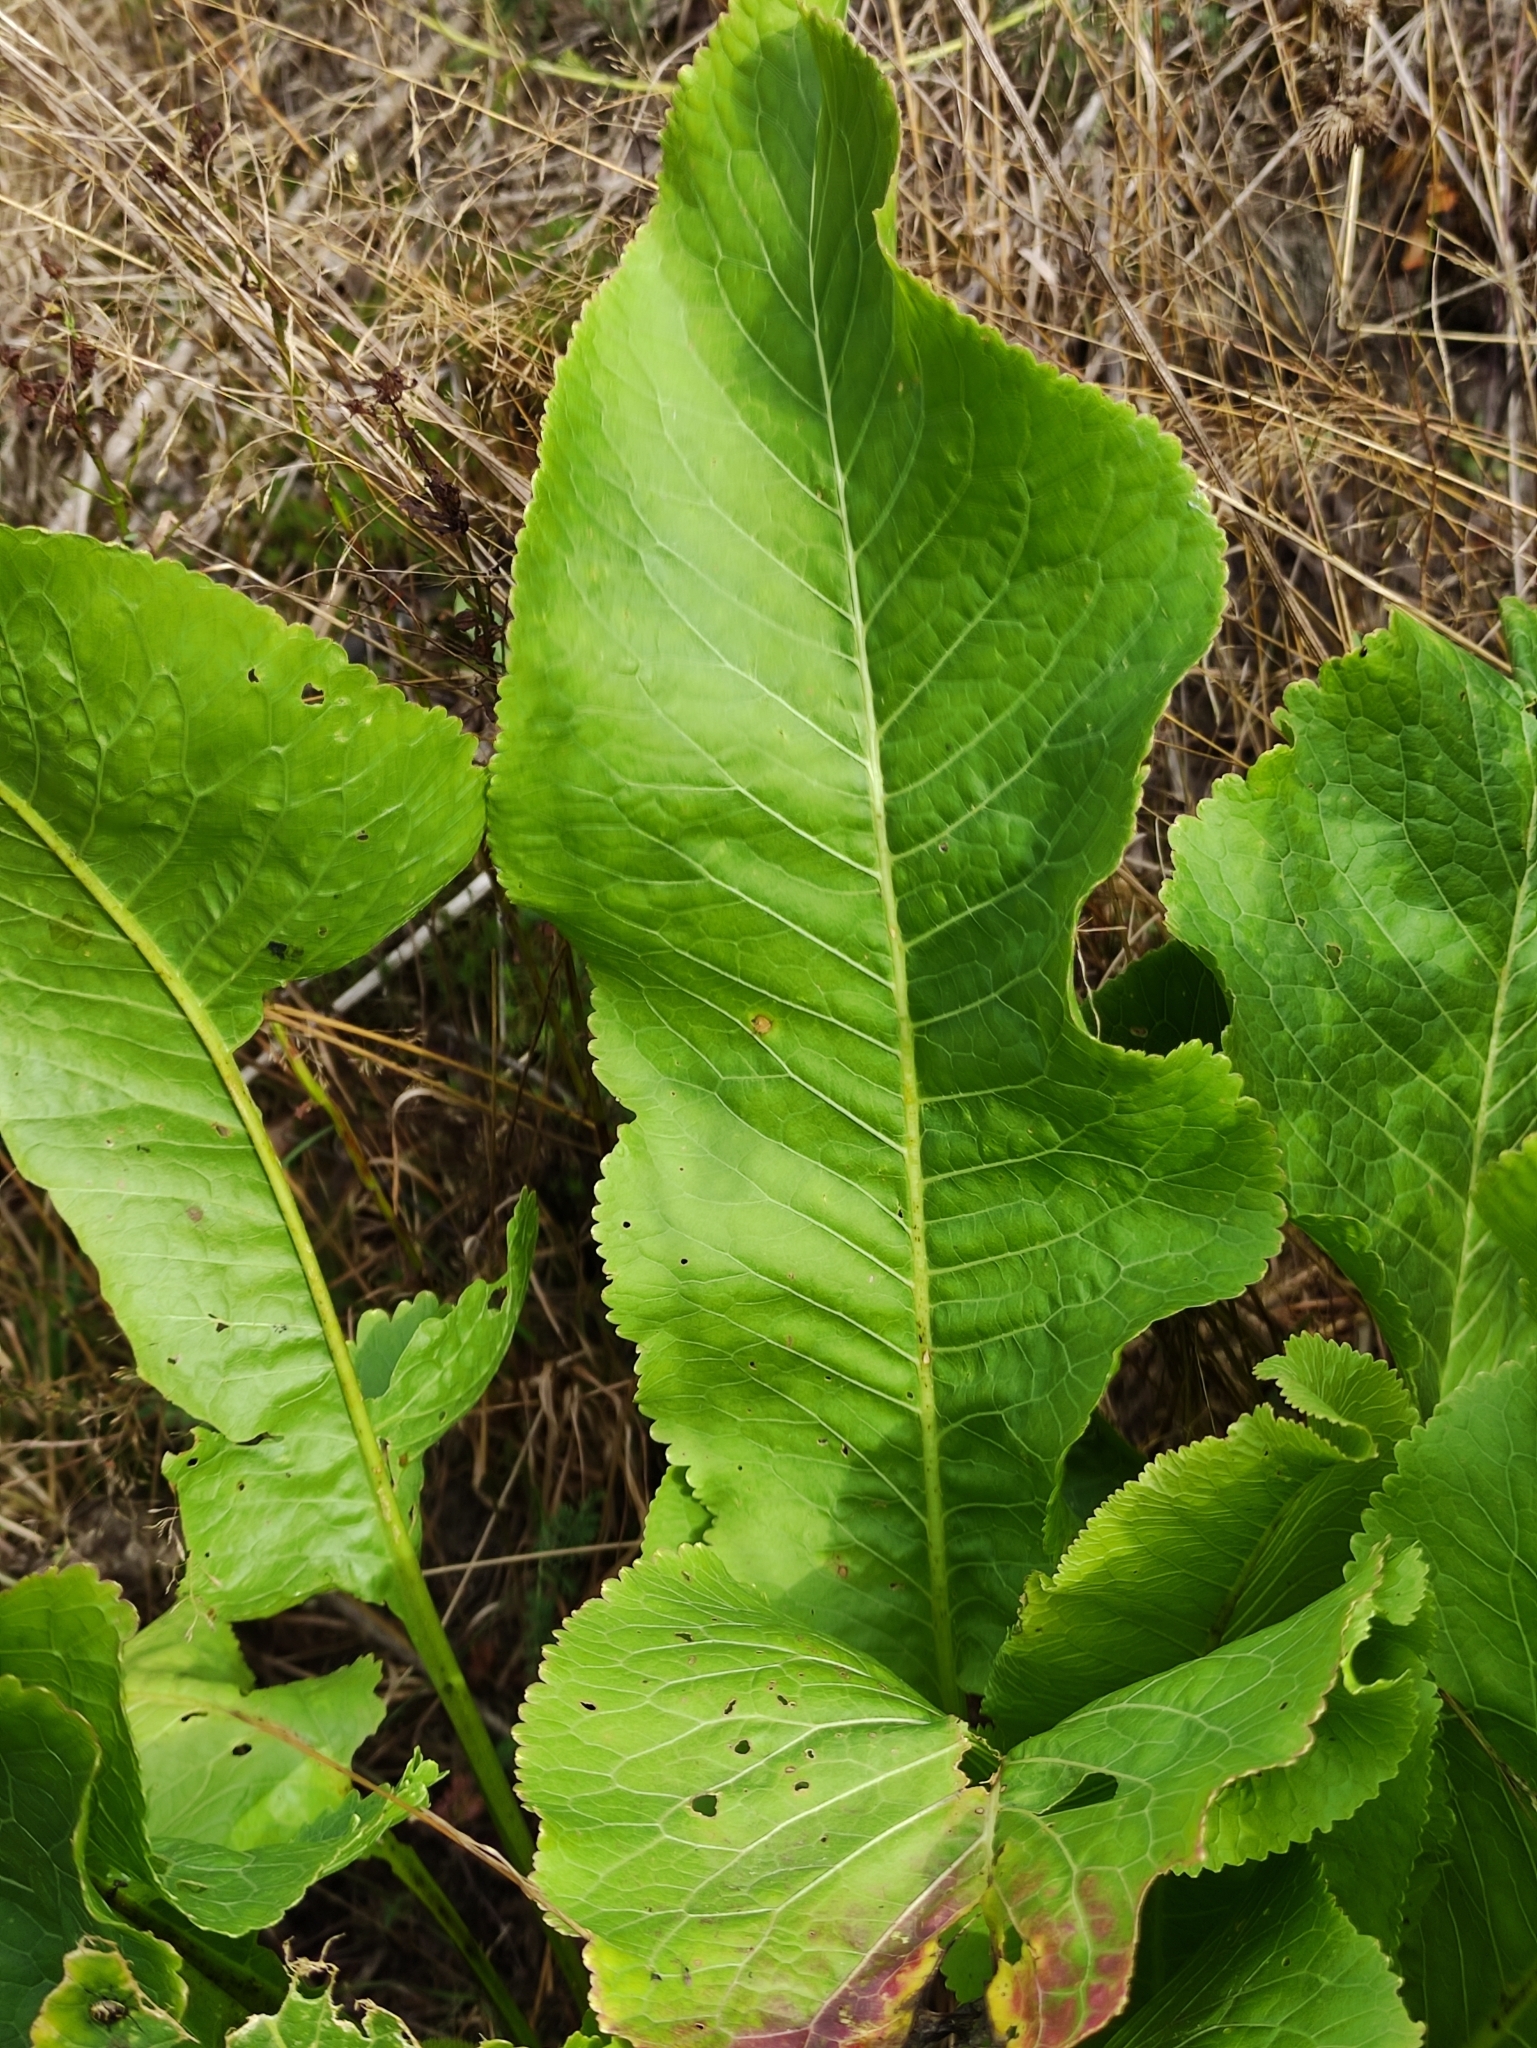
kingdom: Plantae
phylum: Tracheophyta
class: Magnoliopsida
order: Brassicales
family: Brassicaceae
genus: Armoracia
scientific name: Armoracia rusticana
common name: Horseradish
